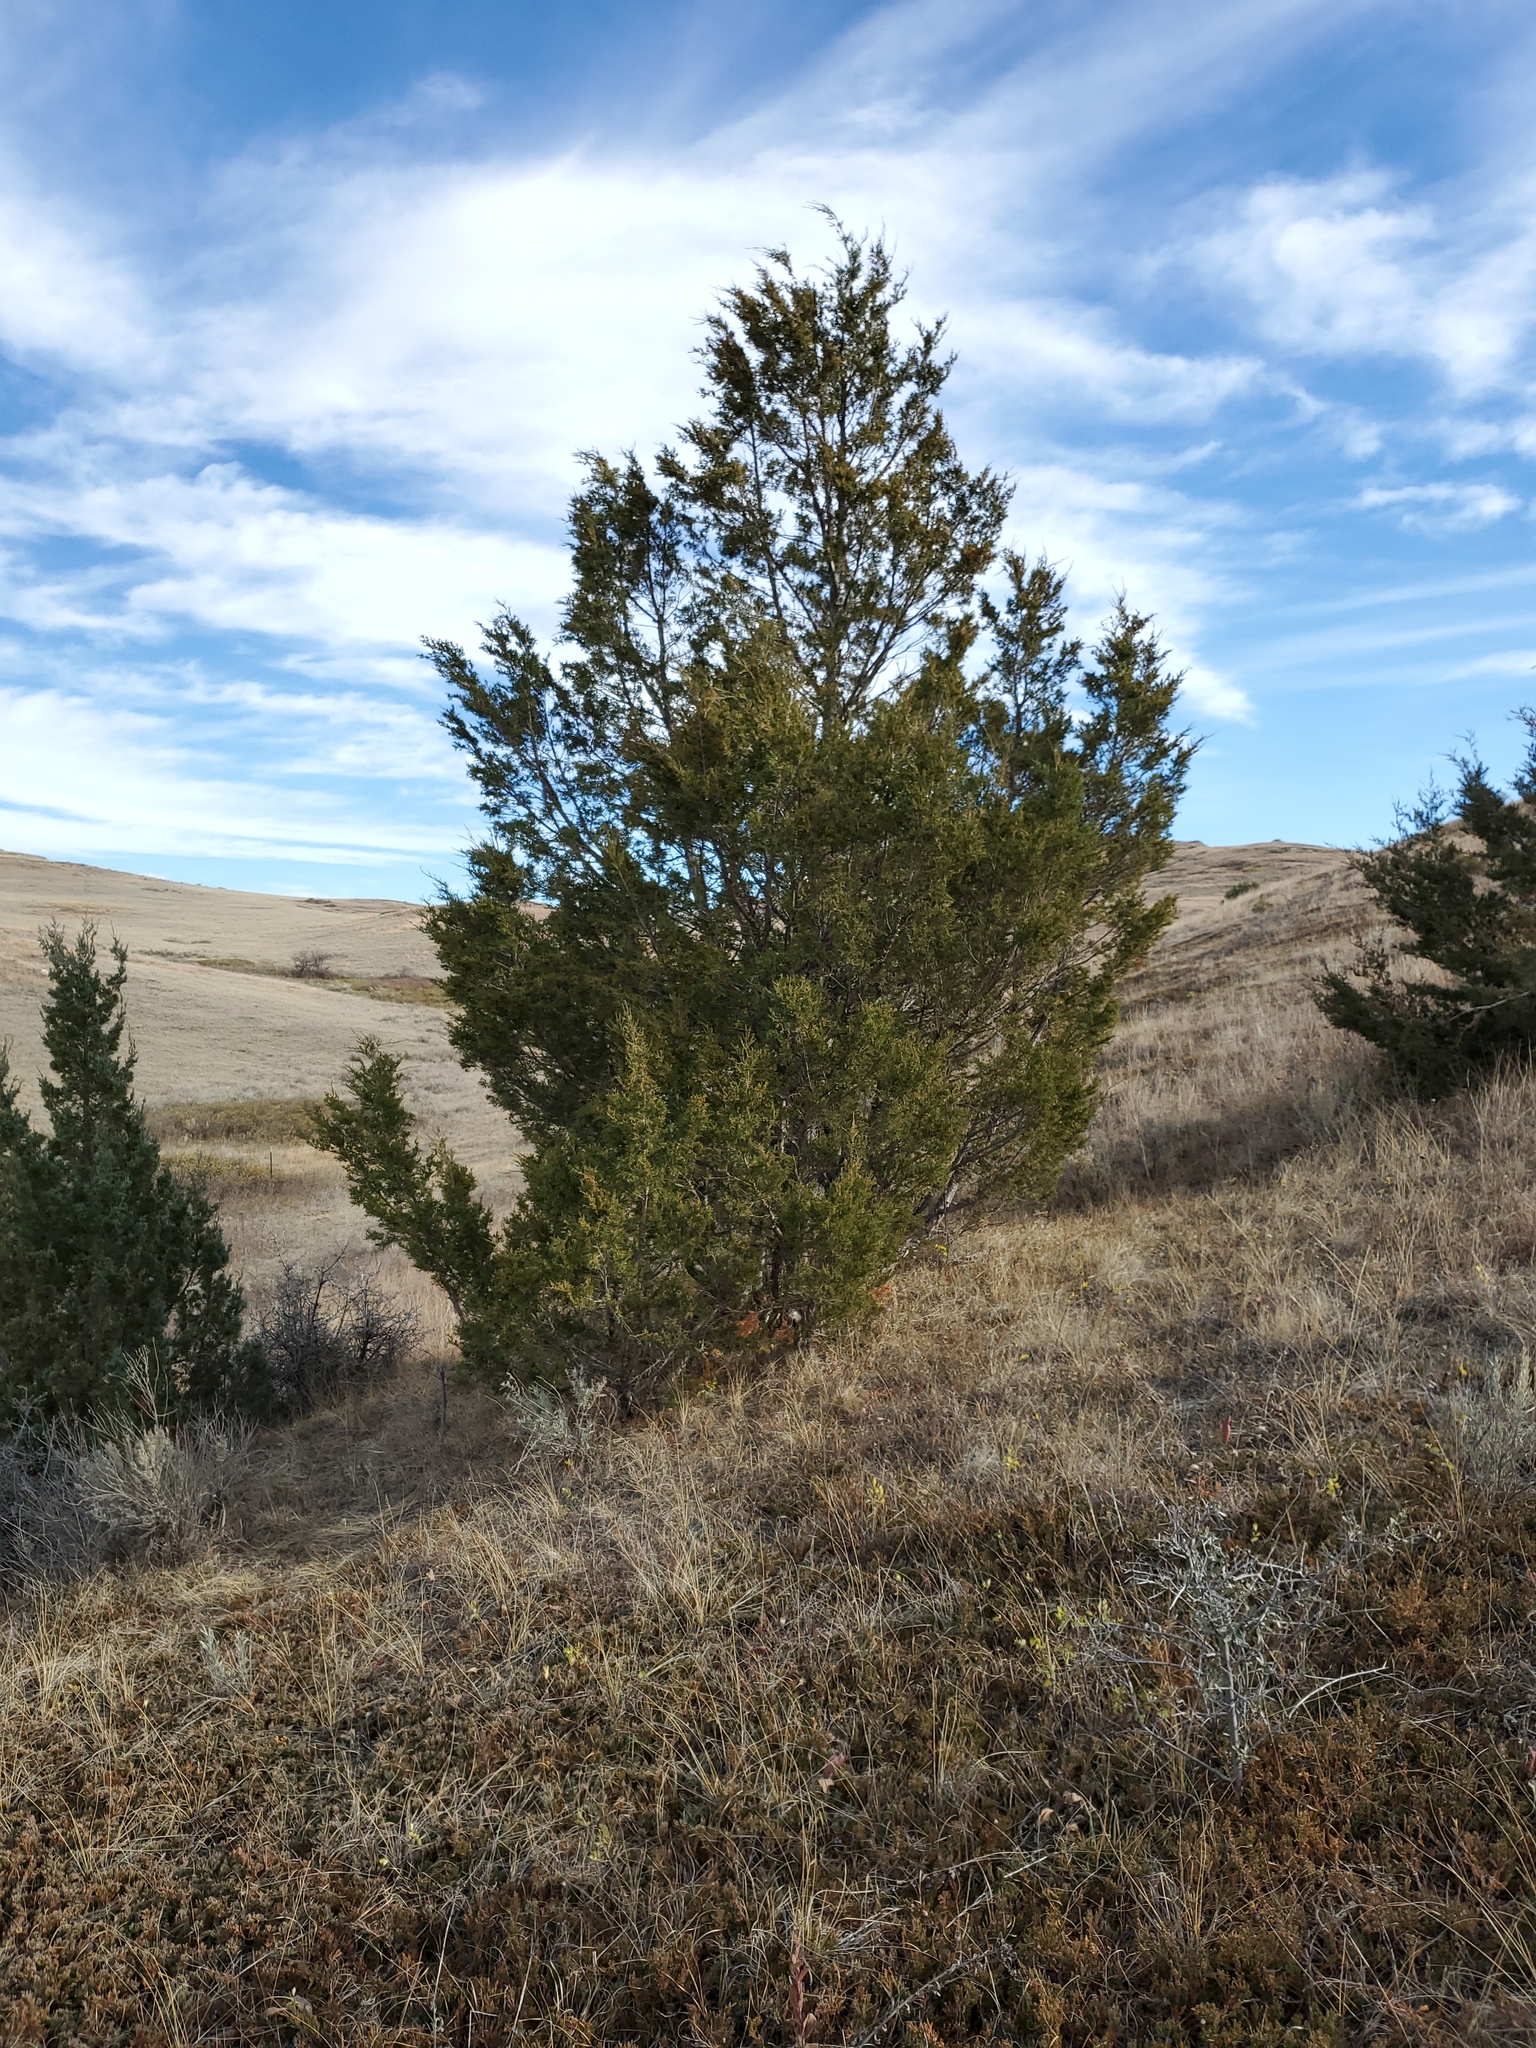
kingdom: Plantae
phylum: Tracheophyta
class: Pinopsida
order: Pinales
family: Cupressaceae
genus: Juniperus
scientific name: Juniperus scopulorum
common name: Rocky mountain juniper
